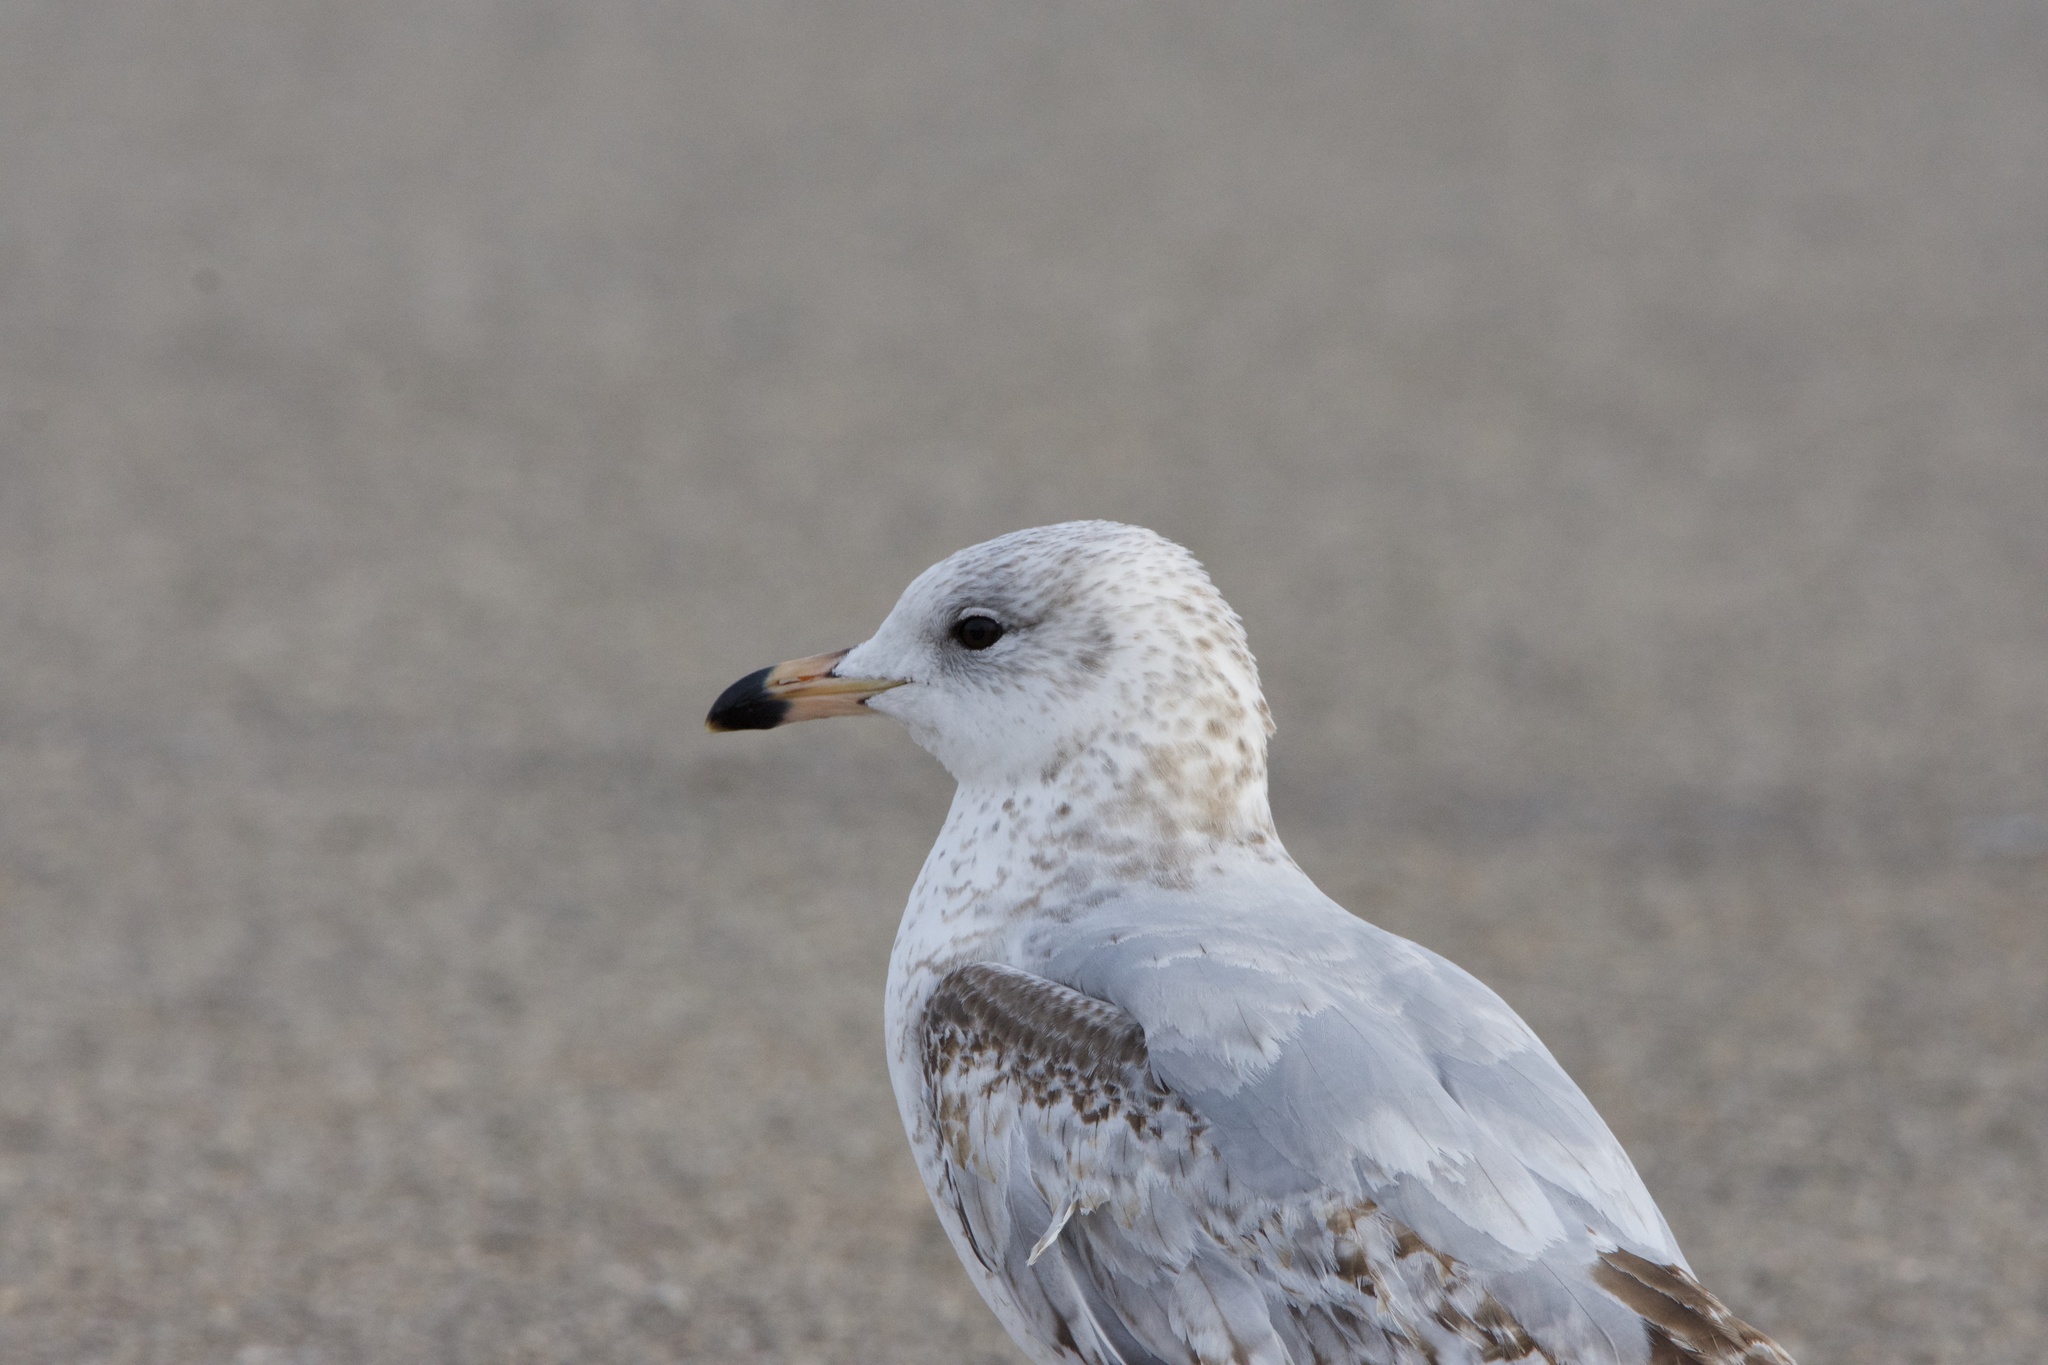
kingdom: Animalia
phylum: Chordata
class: Aves
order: Charadriiformes
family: Laridae
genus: Larus
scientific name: Larus delawarensis
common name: Ring-billed gull
